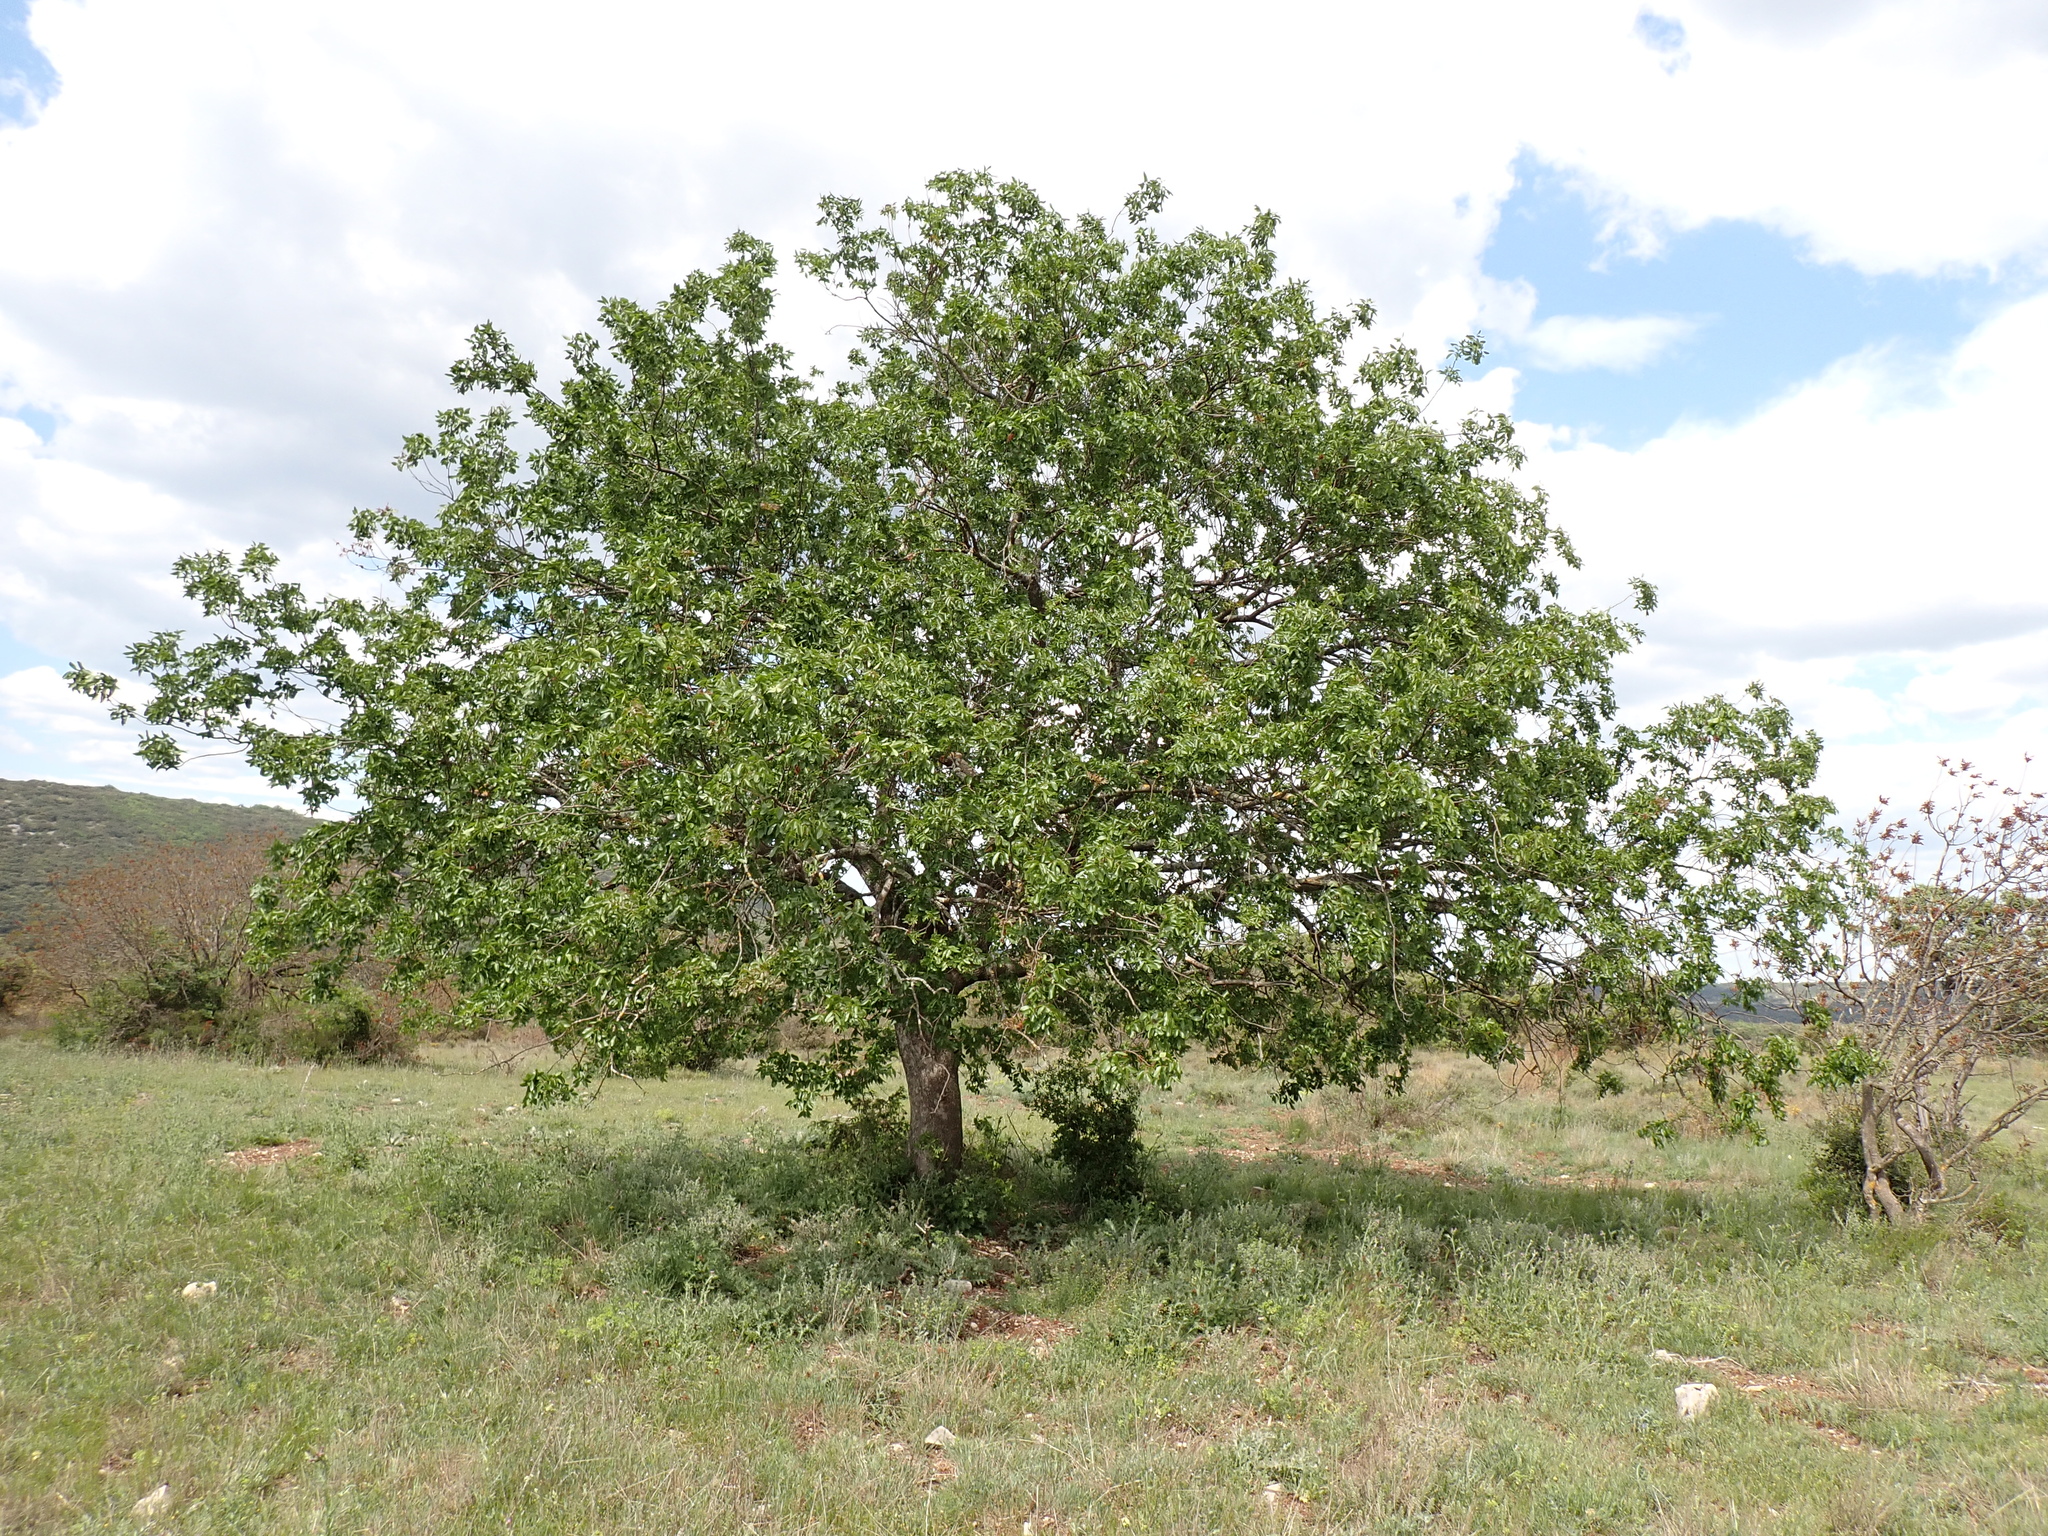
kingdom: Plantae
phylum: Tracheophyta
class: Magnoliopsida
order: Sapindales
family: Anacardiaceae
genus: Pistacia
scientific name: Pistacia terebinthus
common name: Terebinth
